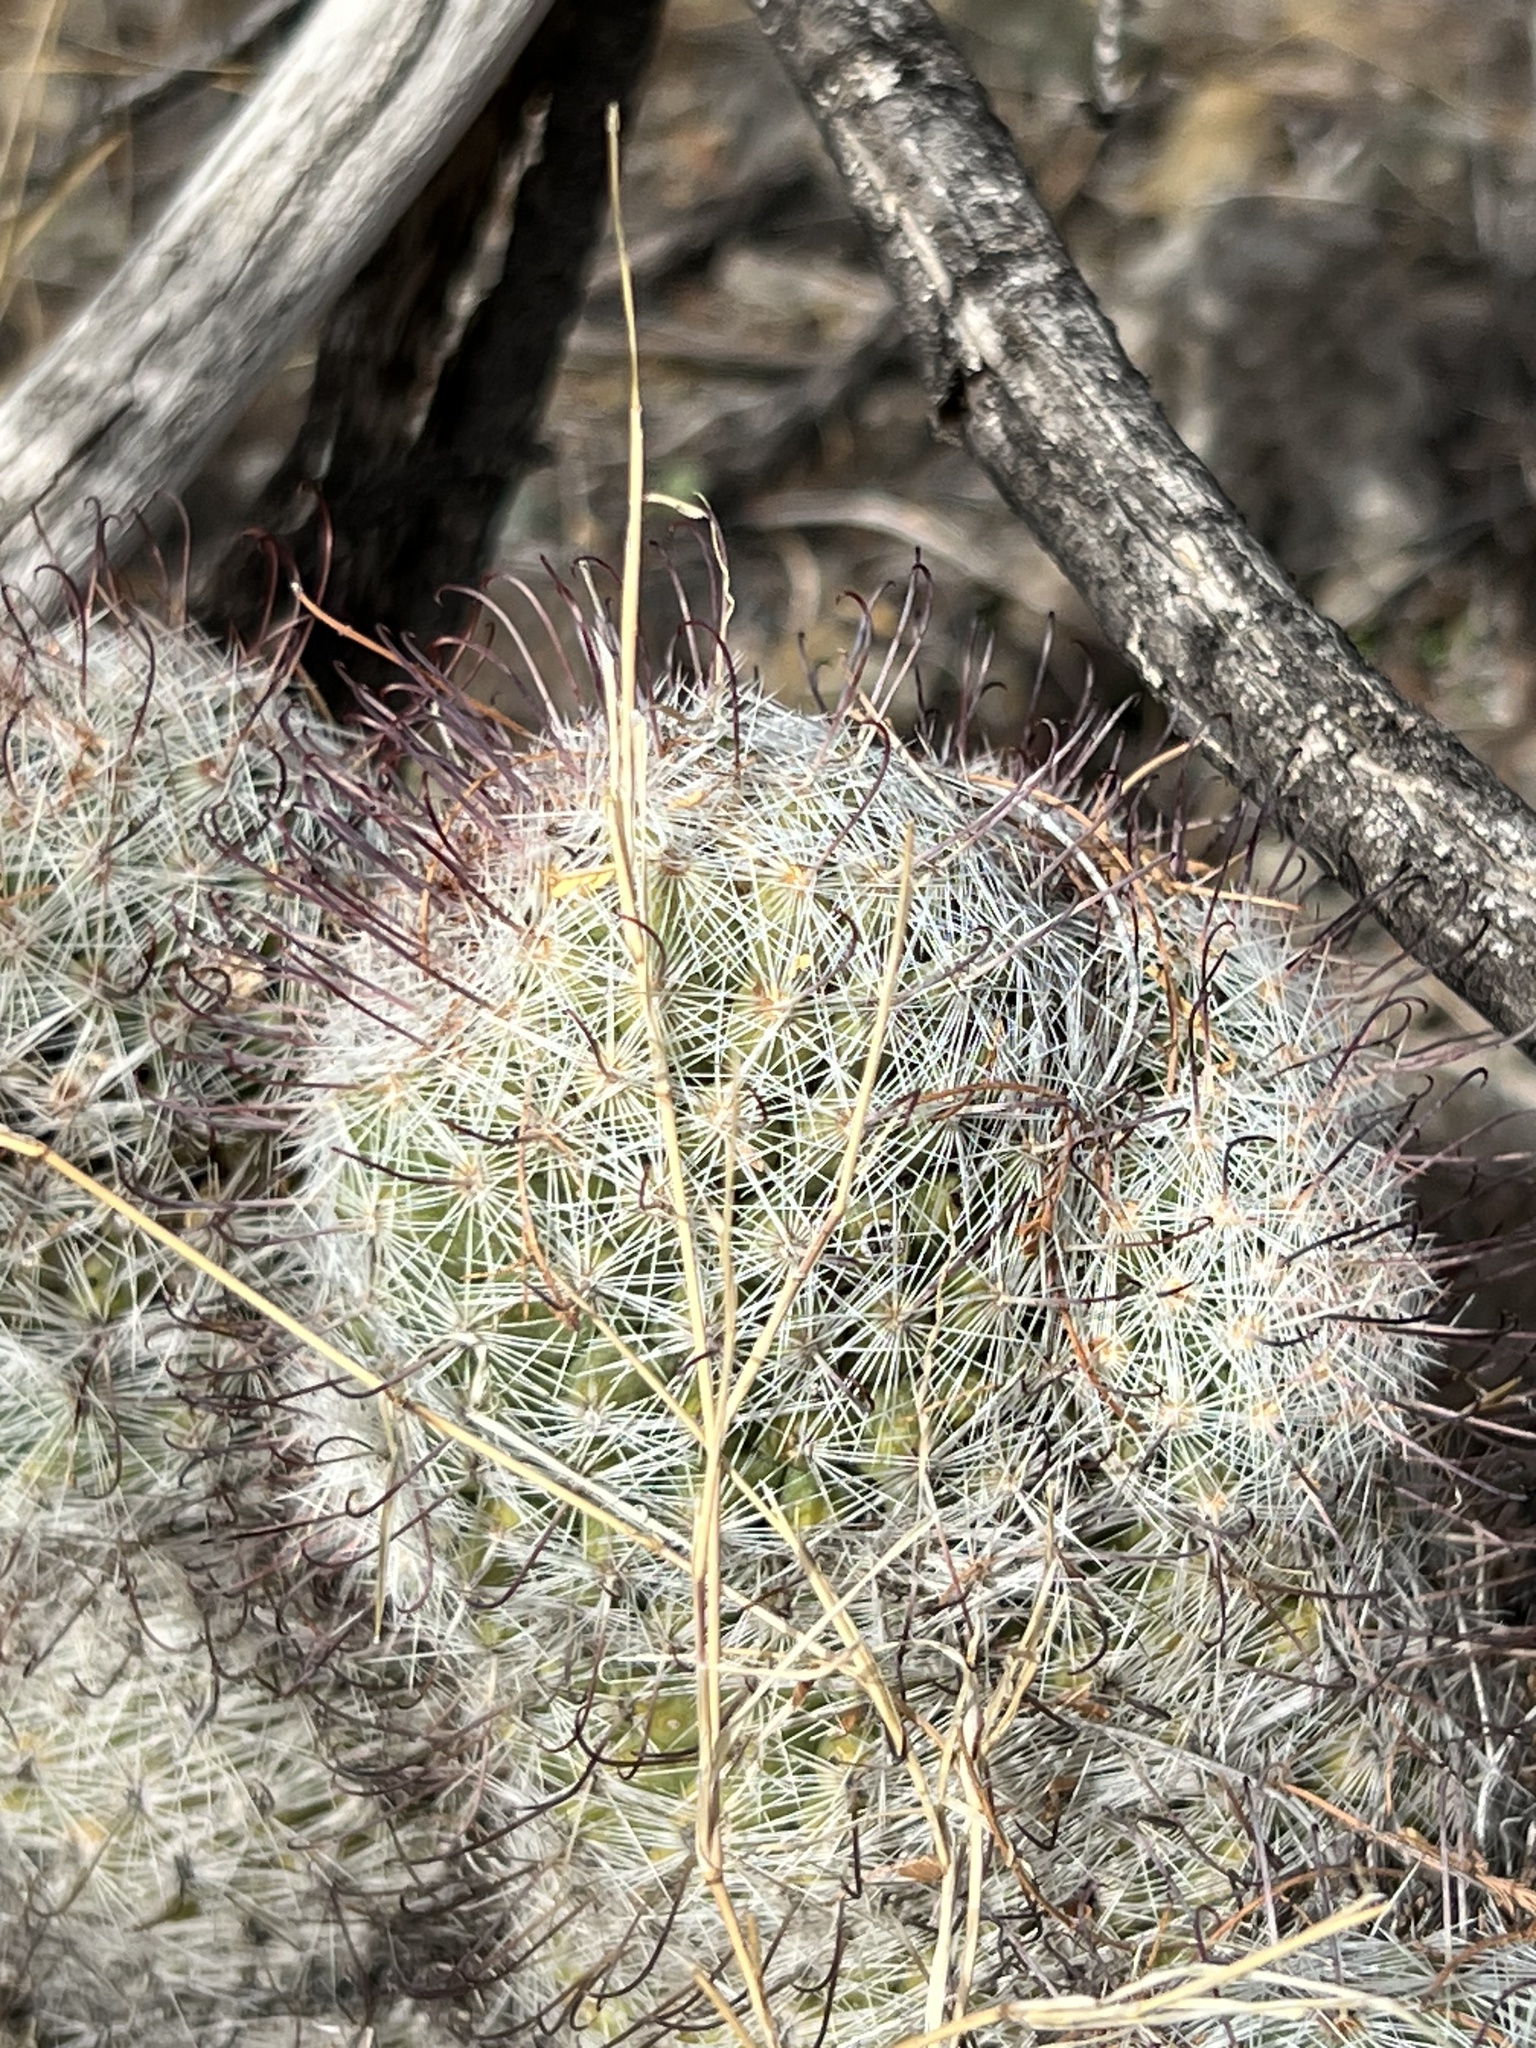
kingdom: Plantae
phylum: Tracheophyta
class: Magnoliopsida
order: Caryophyllales
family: Cactaceae
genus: Cochemiea
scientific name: Cochemiea grahamii
